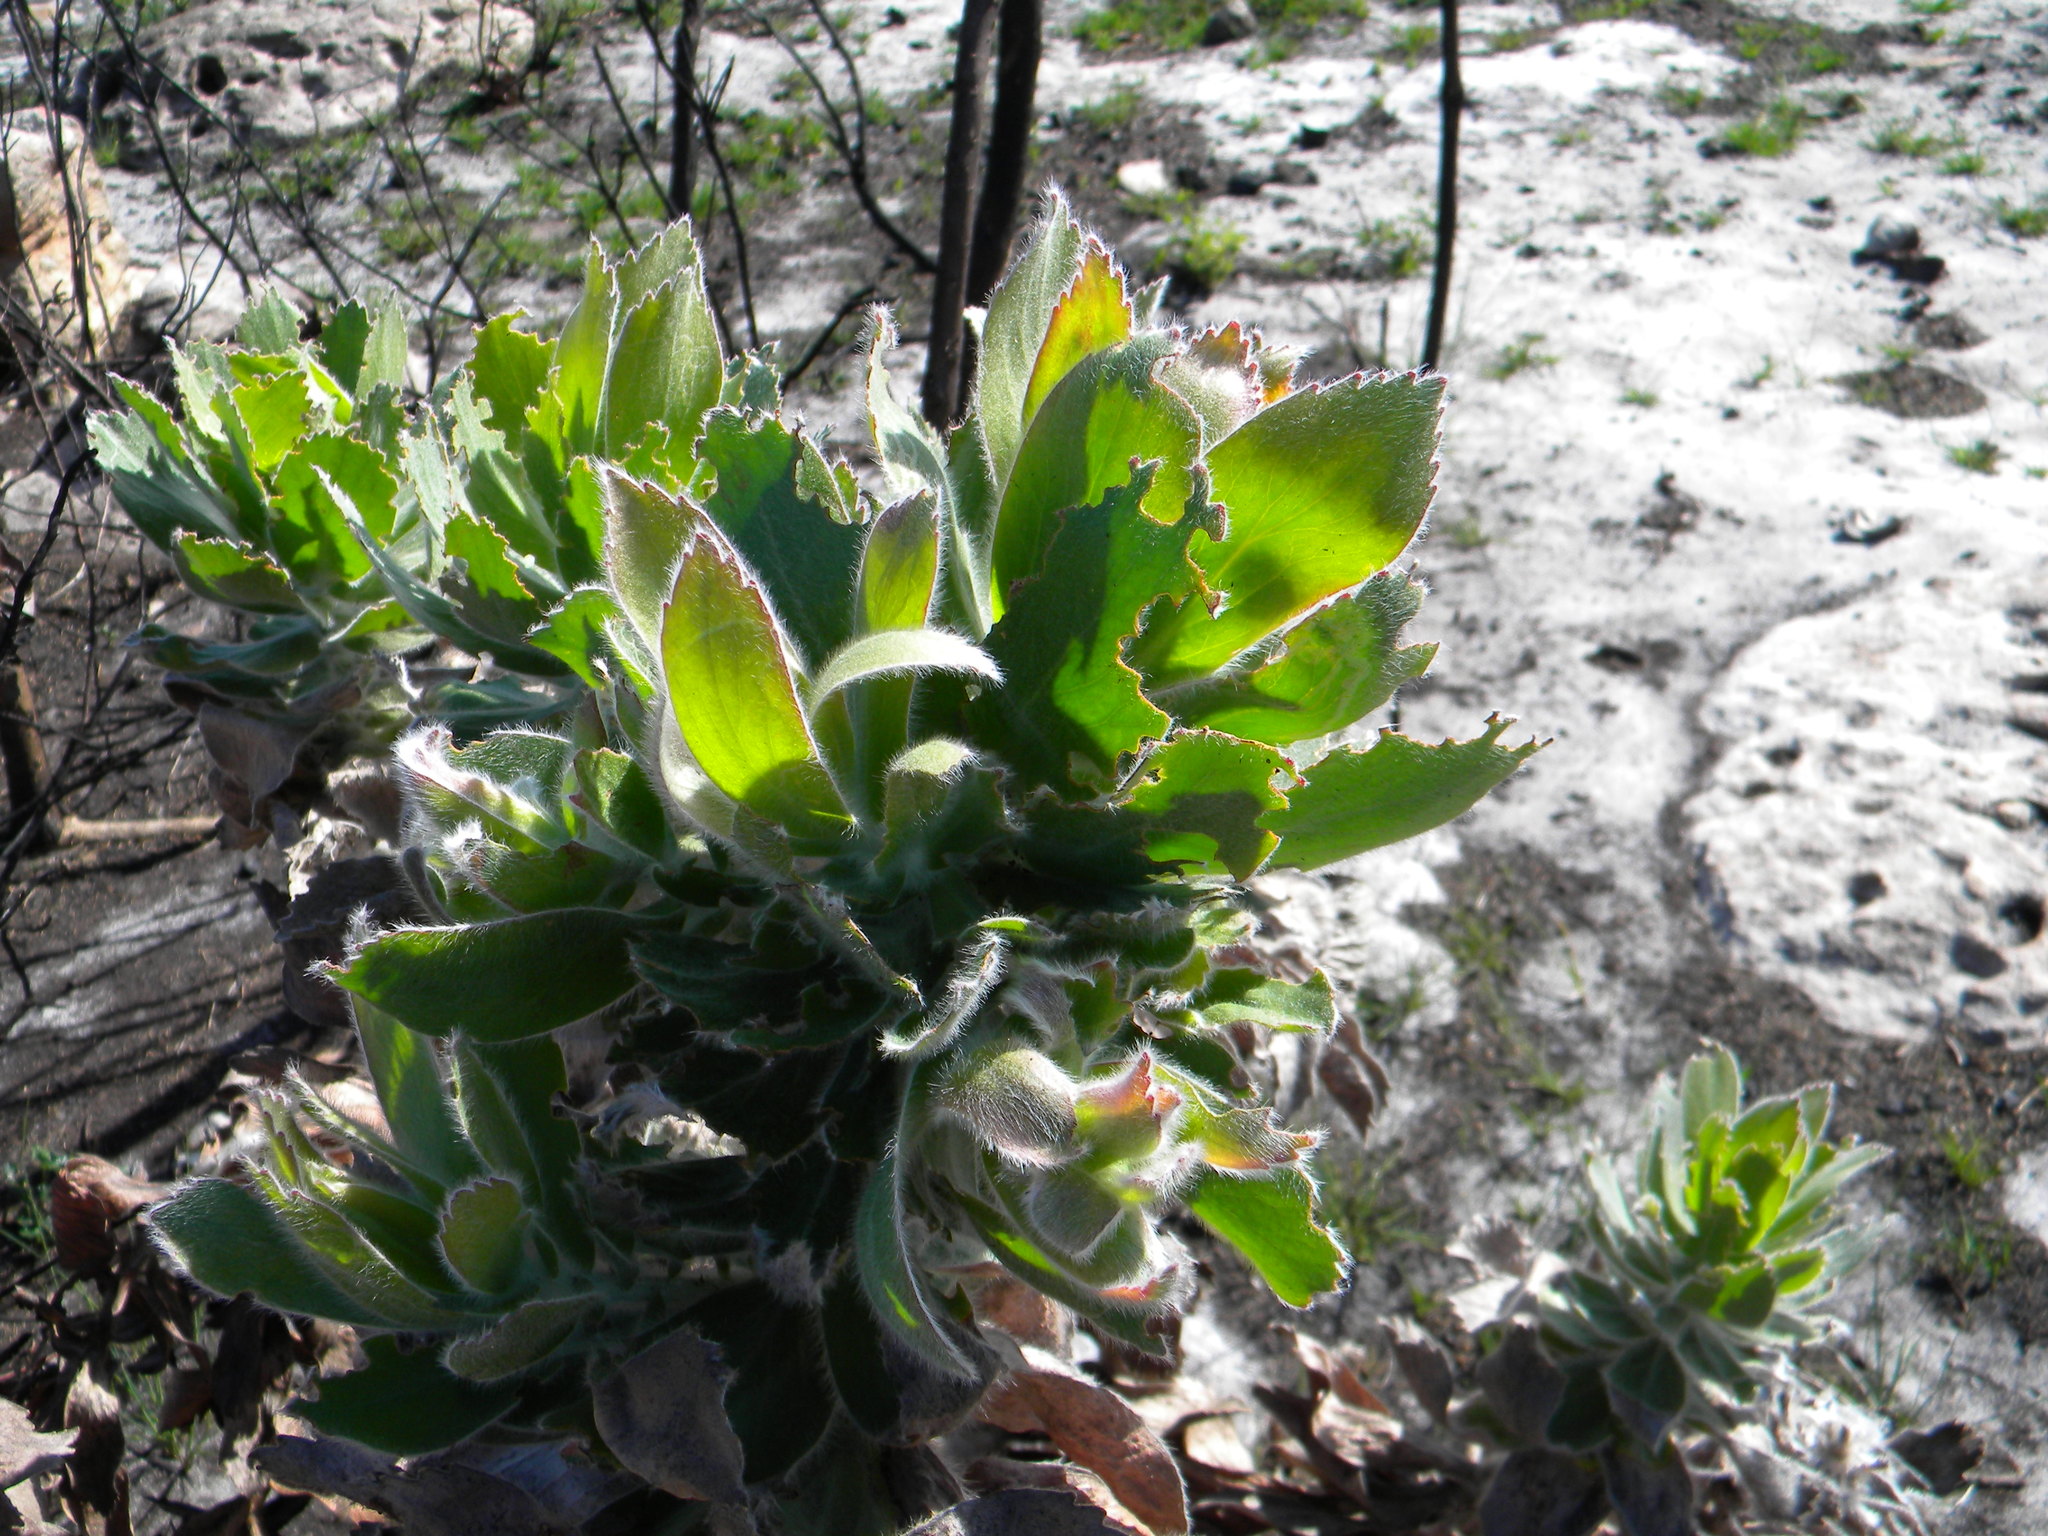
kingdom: Plantae
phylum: Tracheophyta
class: Magnoliopsida
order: Proteales
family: Proteaceae
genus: Leucospermum
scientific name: Leucospermum conocarpodendron
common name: Tree pincushion
